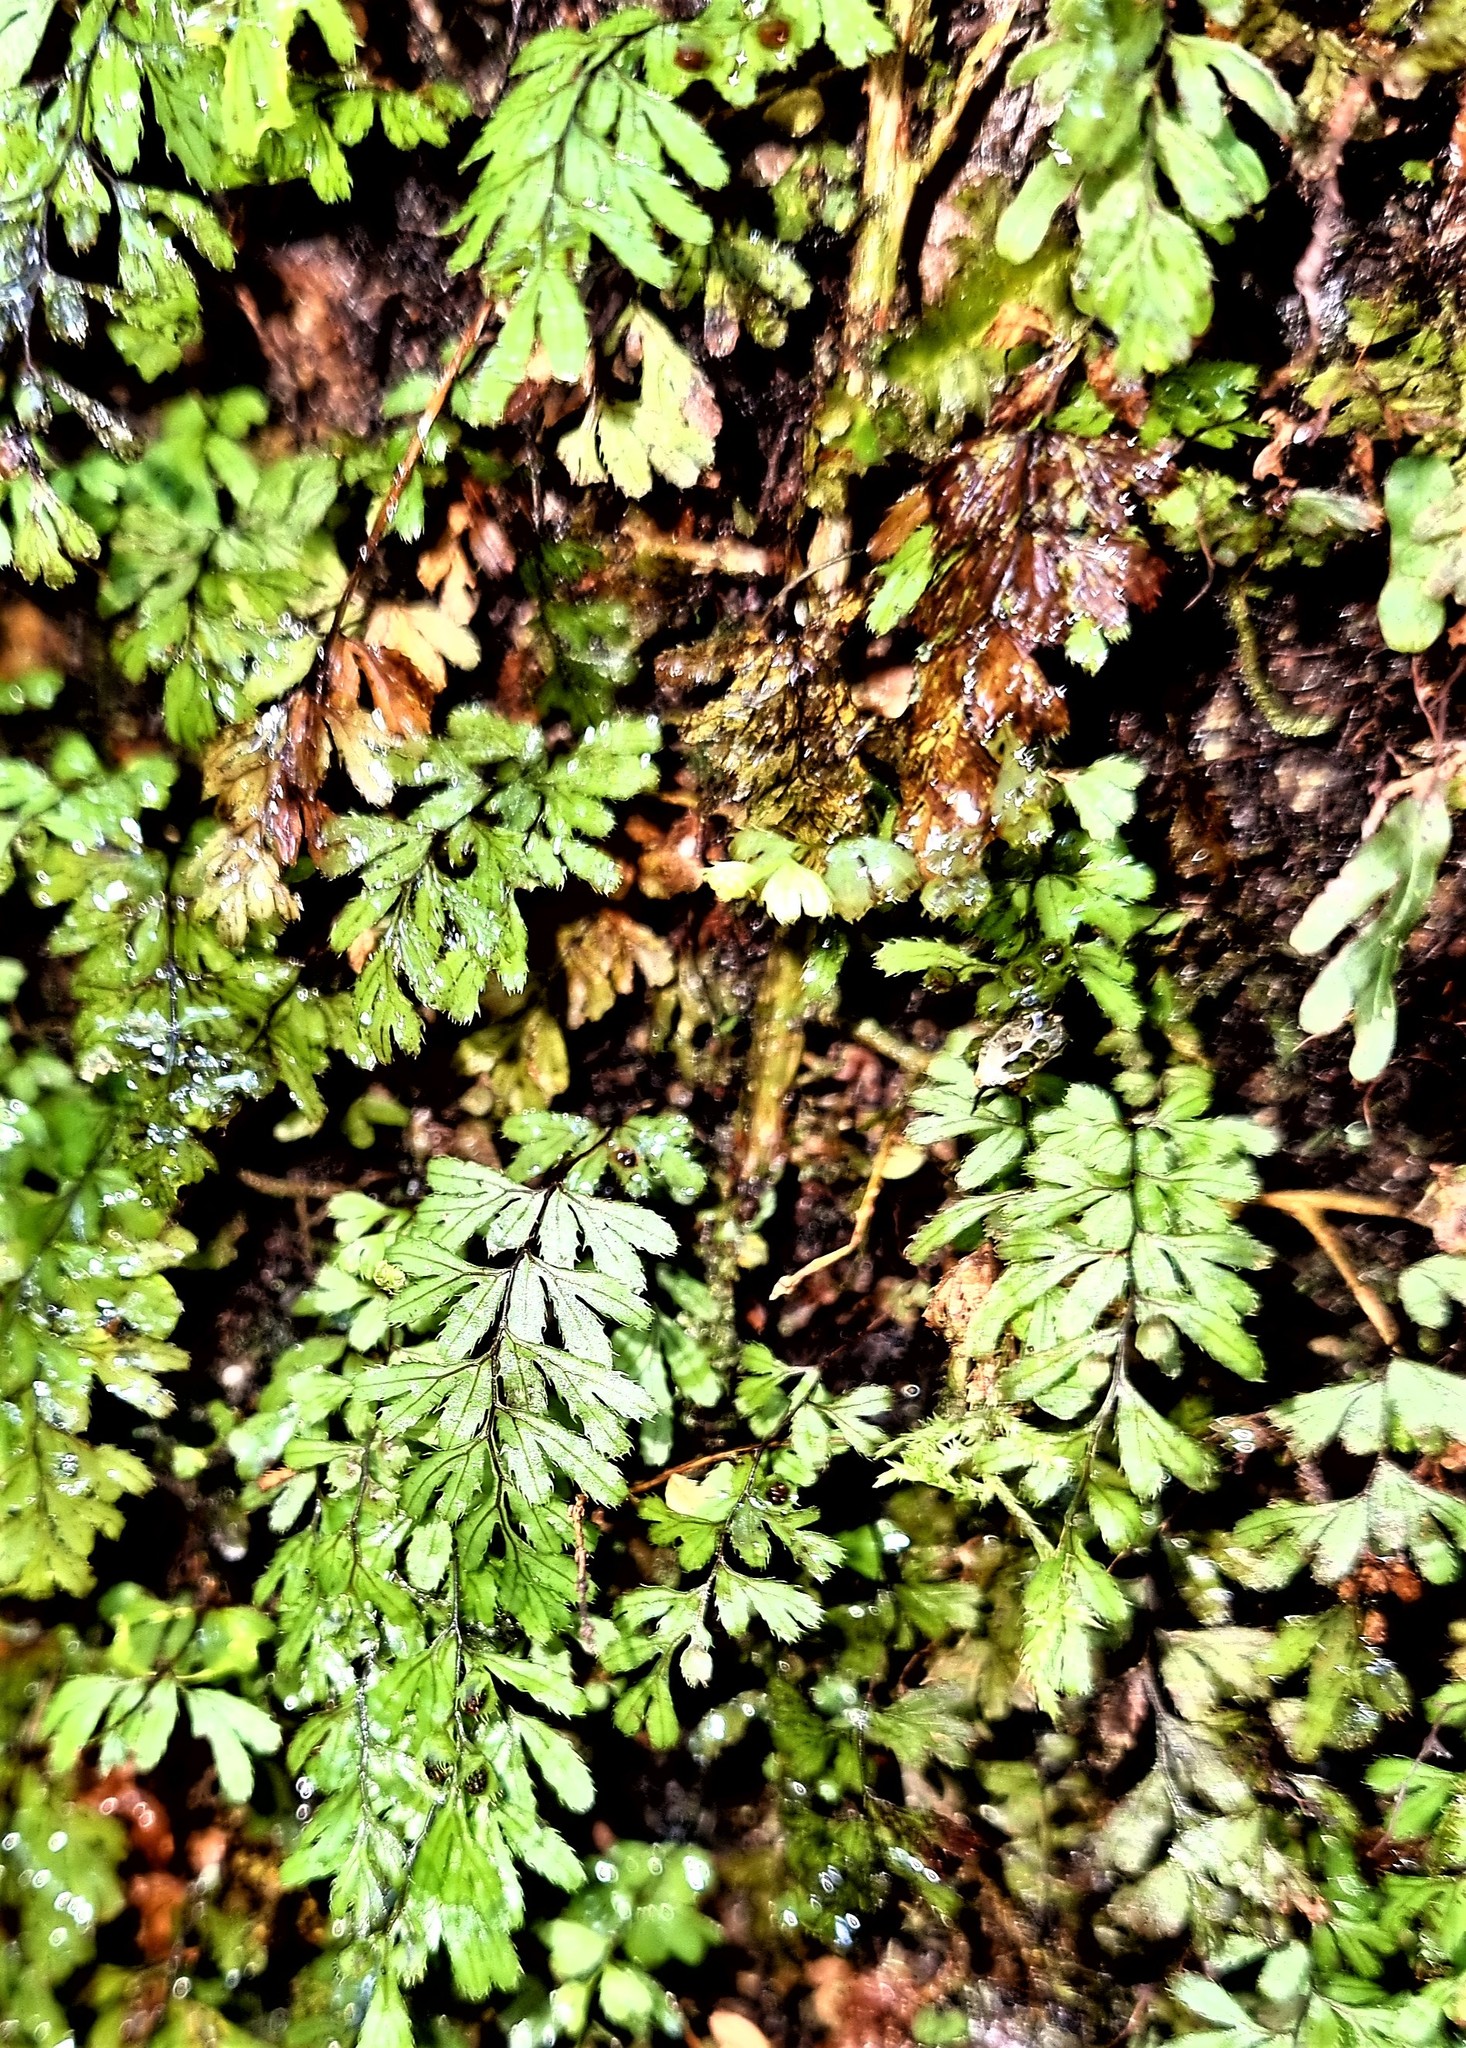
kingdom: Plantae
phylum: Tracheophyta
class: Polypodiopsida
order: Hymenophyllales
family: Hymenophyllaceae
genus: Hymenophyllum
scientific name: Hymenophyllum revolutum
